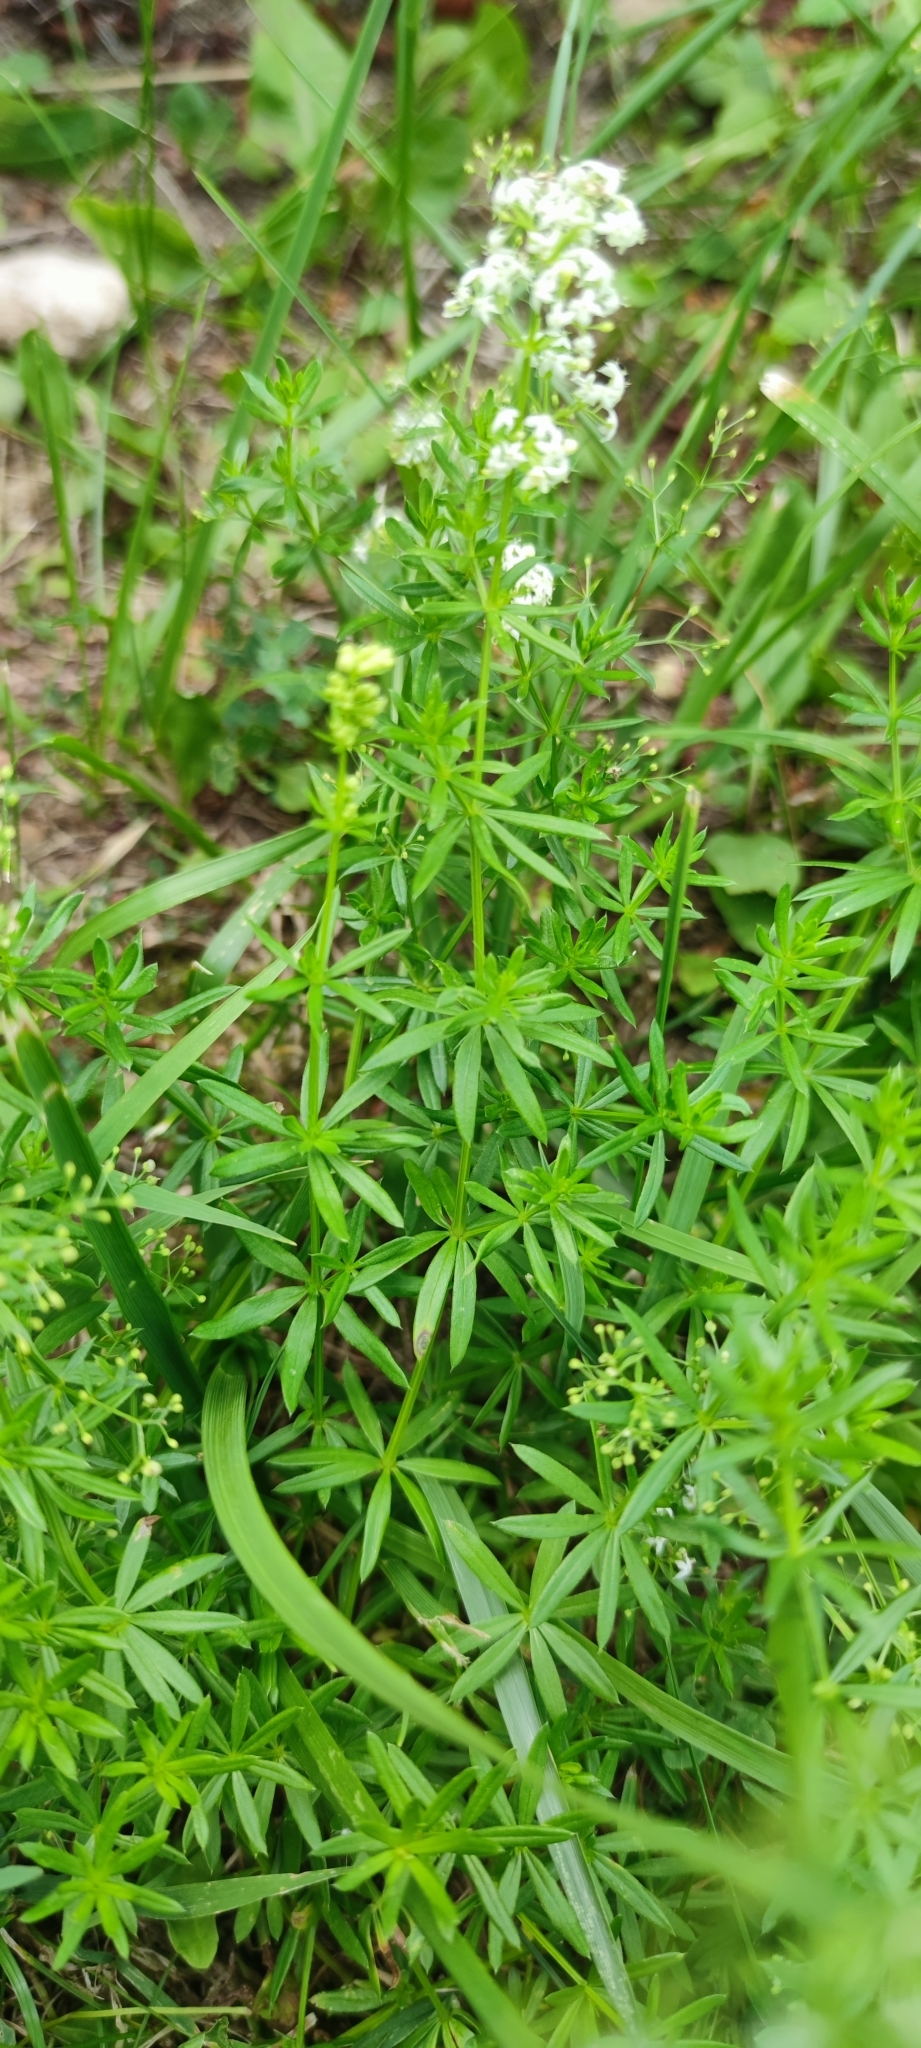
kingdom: Plantae
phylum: Tracheophyta
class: Magnoliopsida
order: Gentianales
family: Rubiaceae
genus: Galium
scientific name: Galium mollugo
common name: Hedge bedstraw
